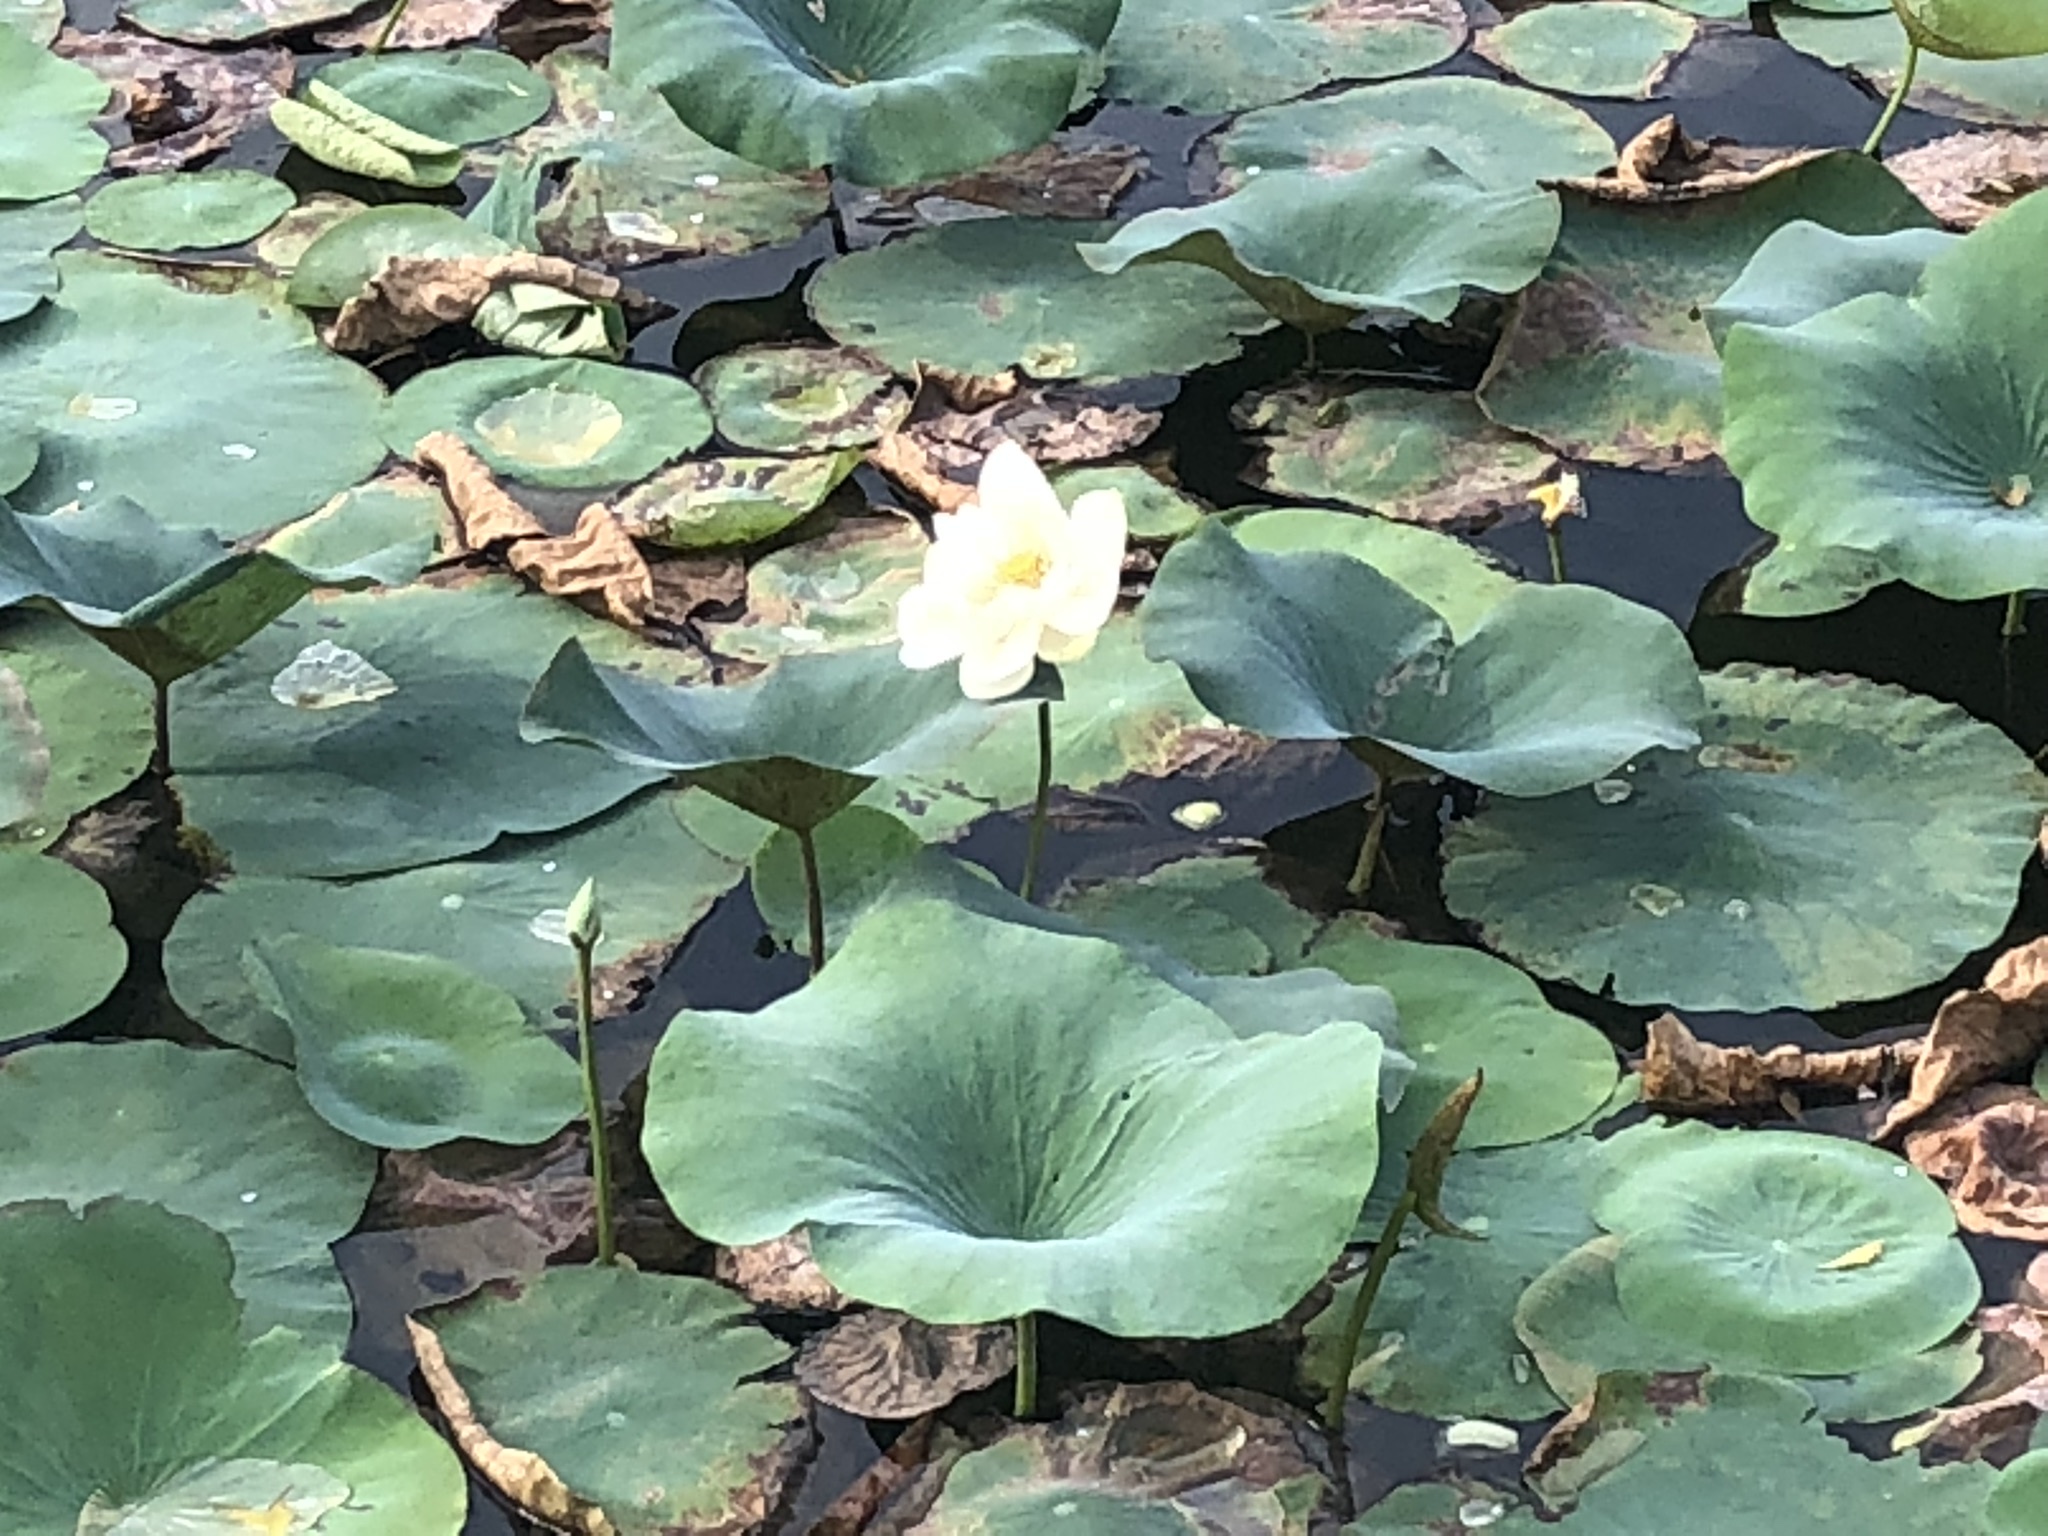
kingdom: Plantae
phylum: Tracheophyta
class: Magnoliopsida
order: Proteales
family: Nelumbonaceae
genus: Nelumbo
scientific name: Nelumbo nucifera
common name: Sacred lotus
